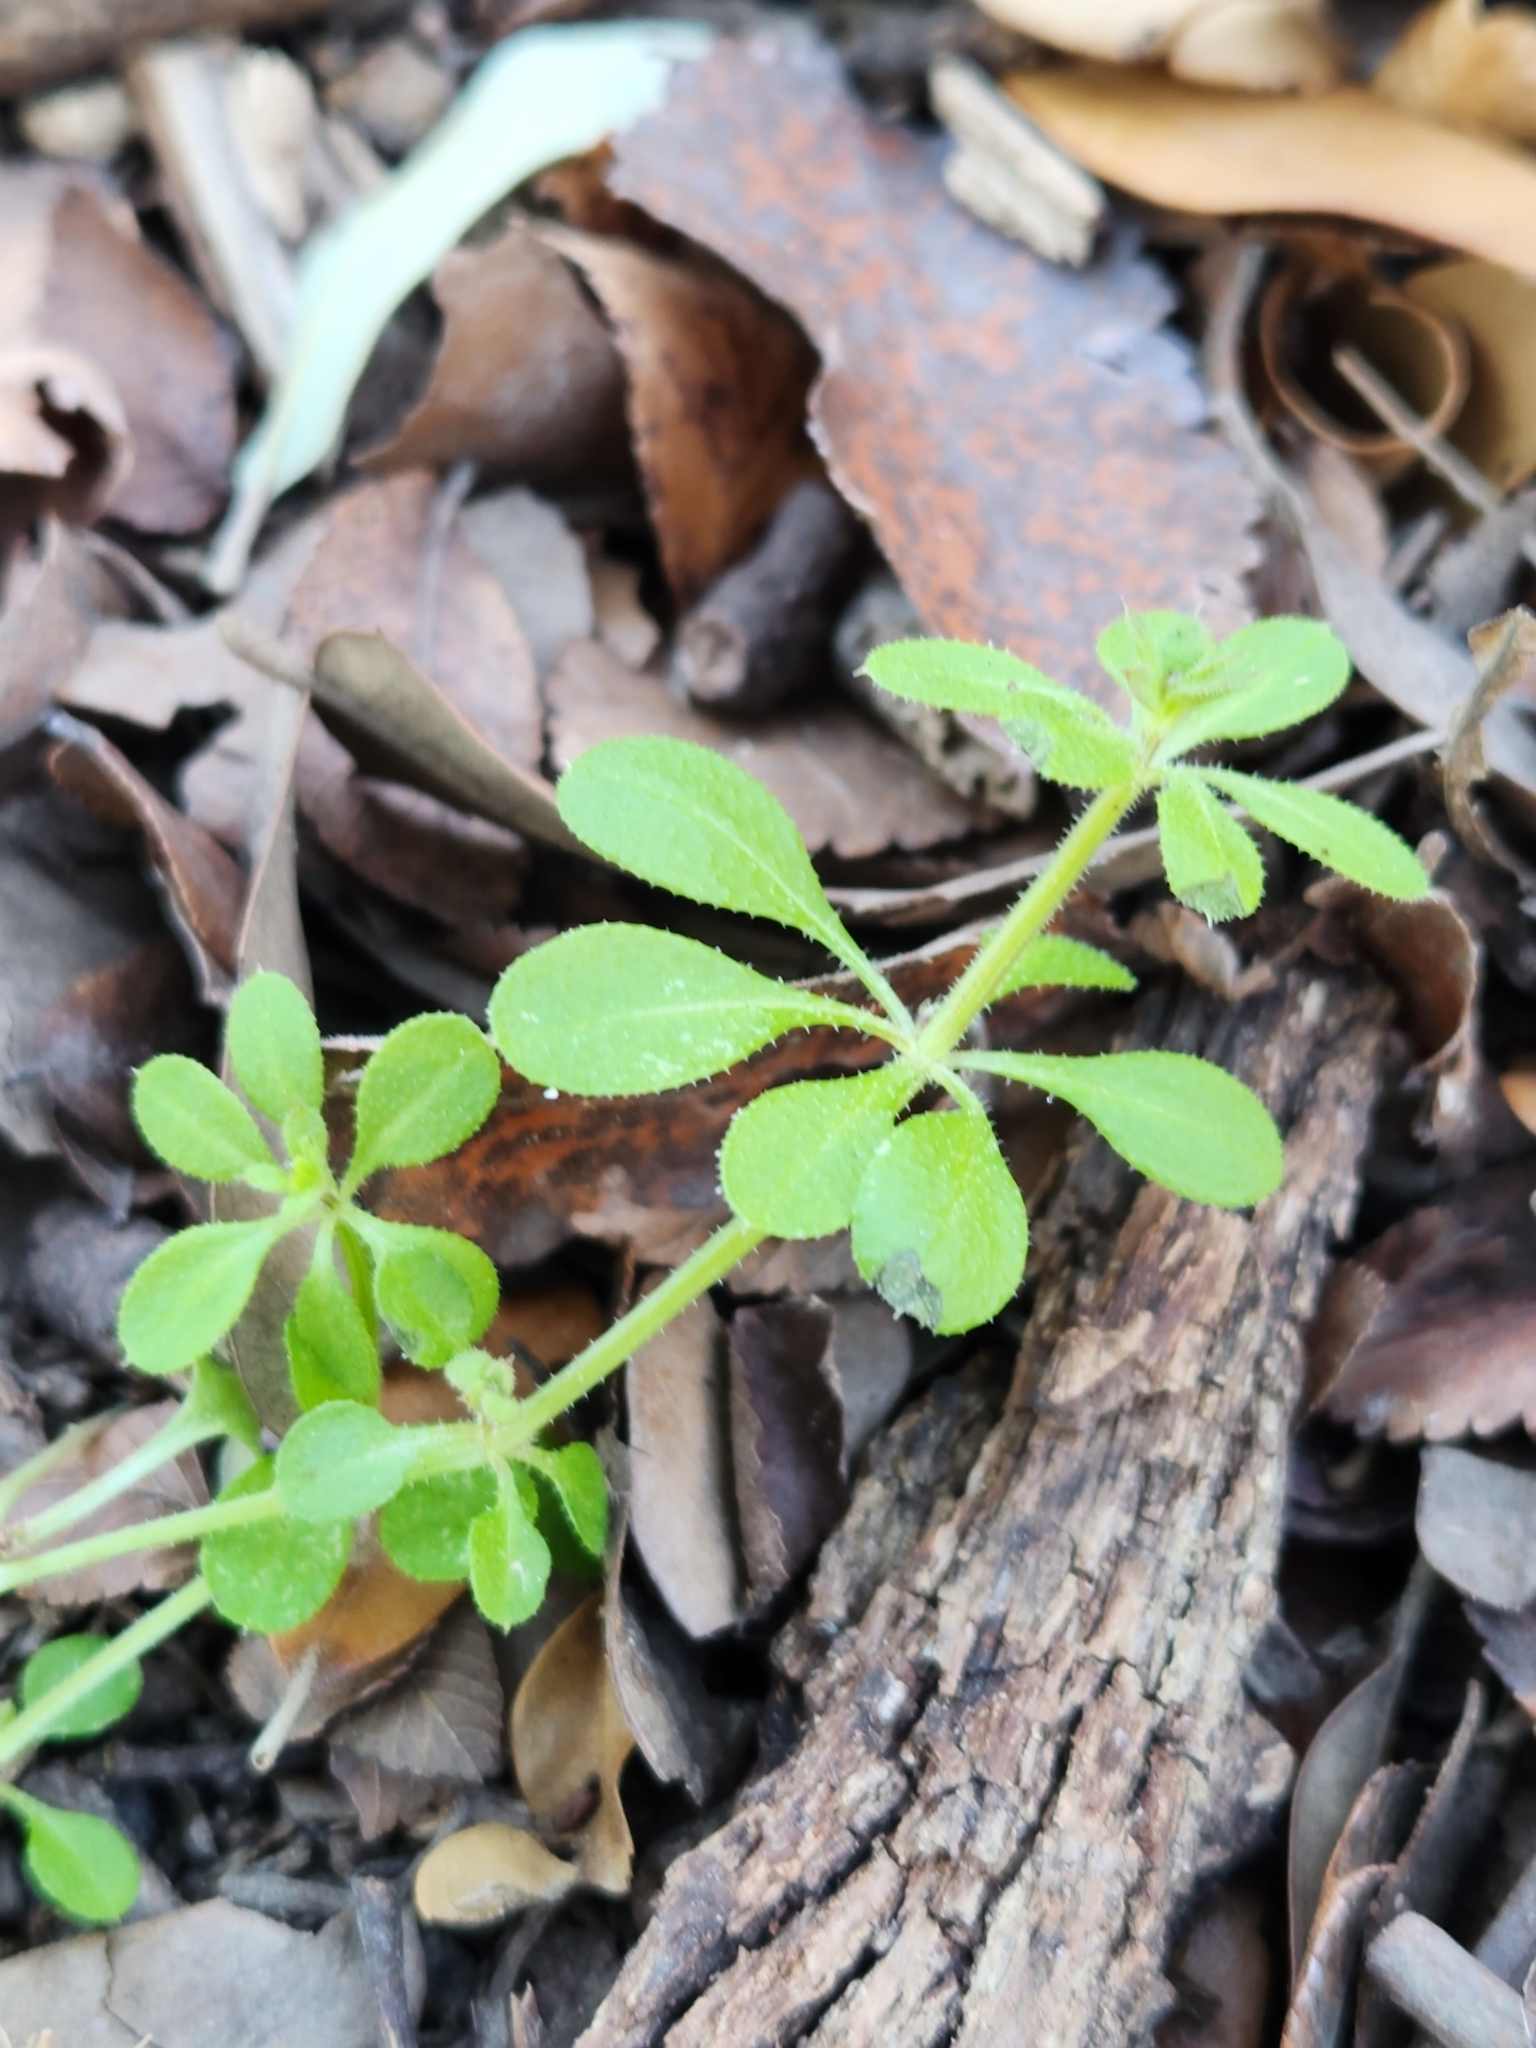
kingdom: Plantae
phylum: Tracheophyta
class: Magnoliopsida
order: Gentianales
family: Rubiaceae
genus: Galium
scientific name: Galium aparine
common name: Cleavers
